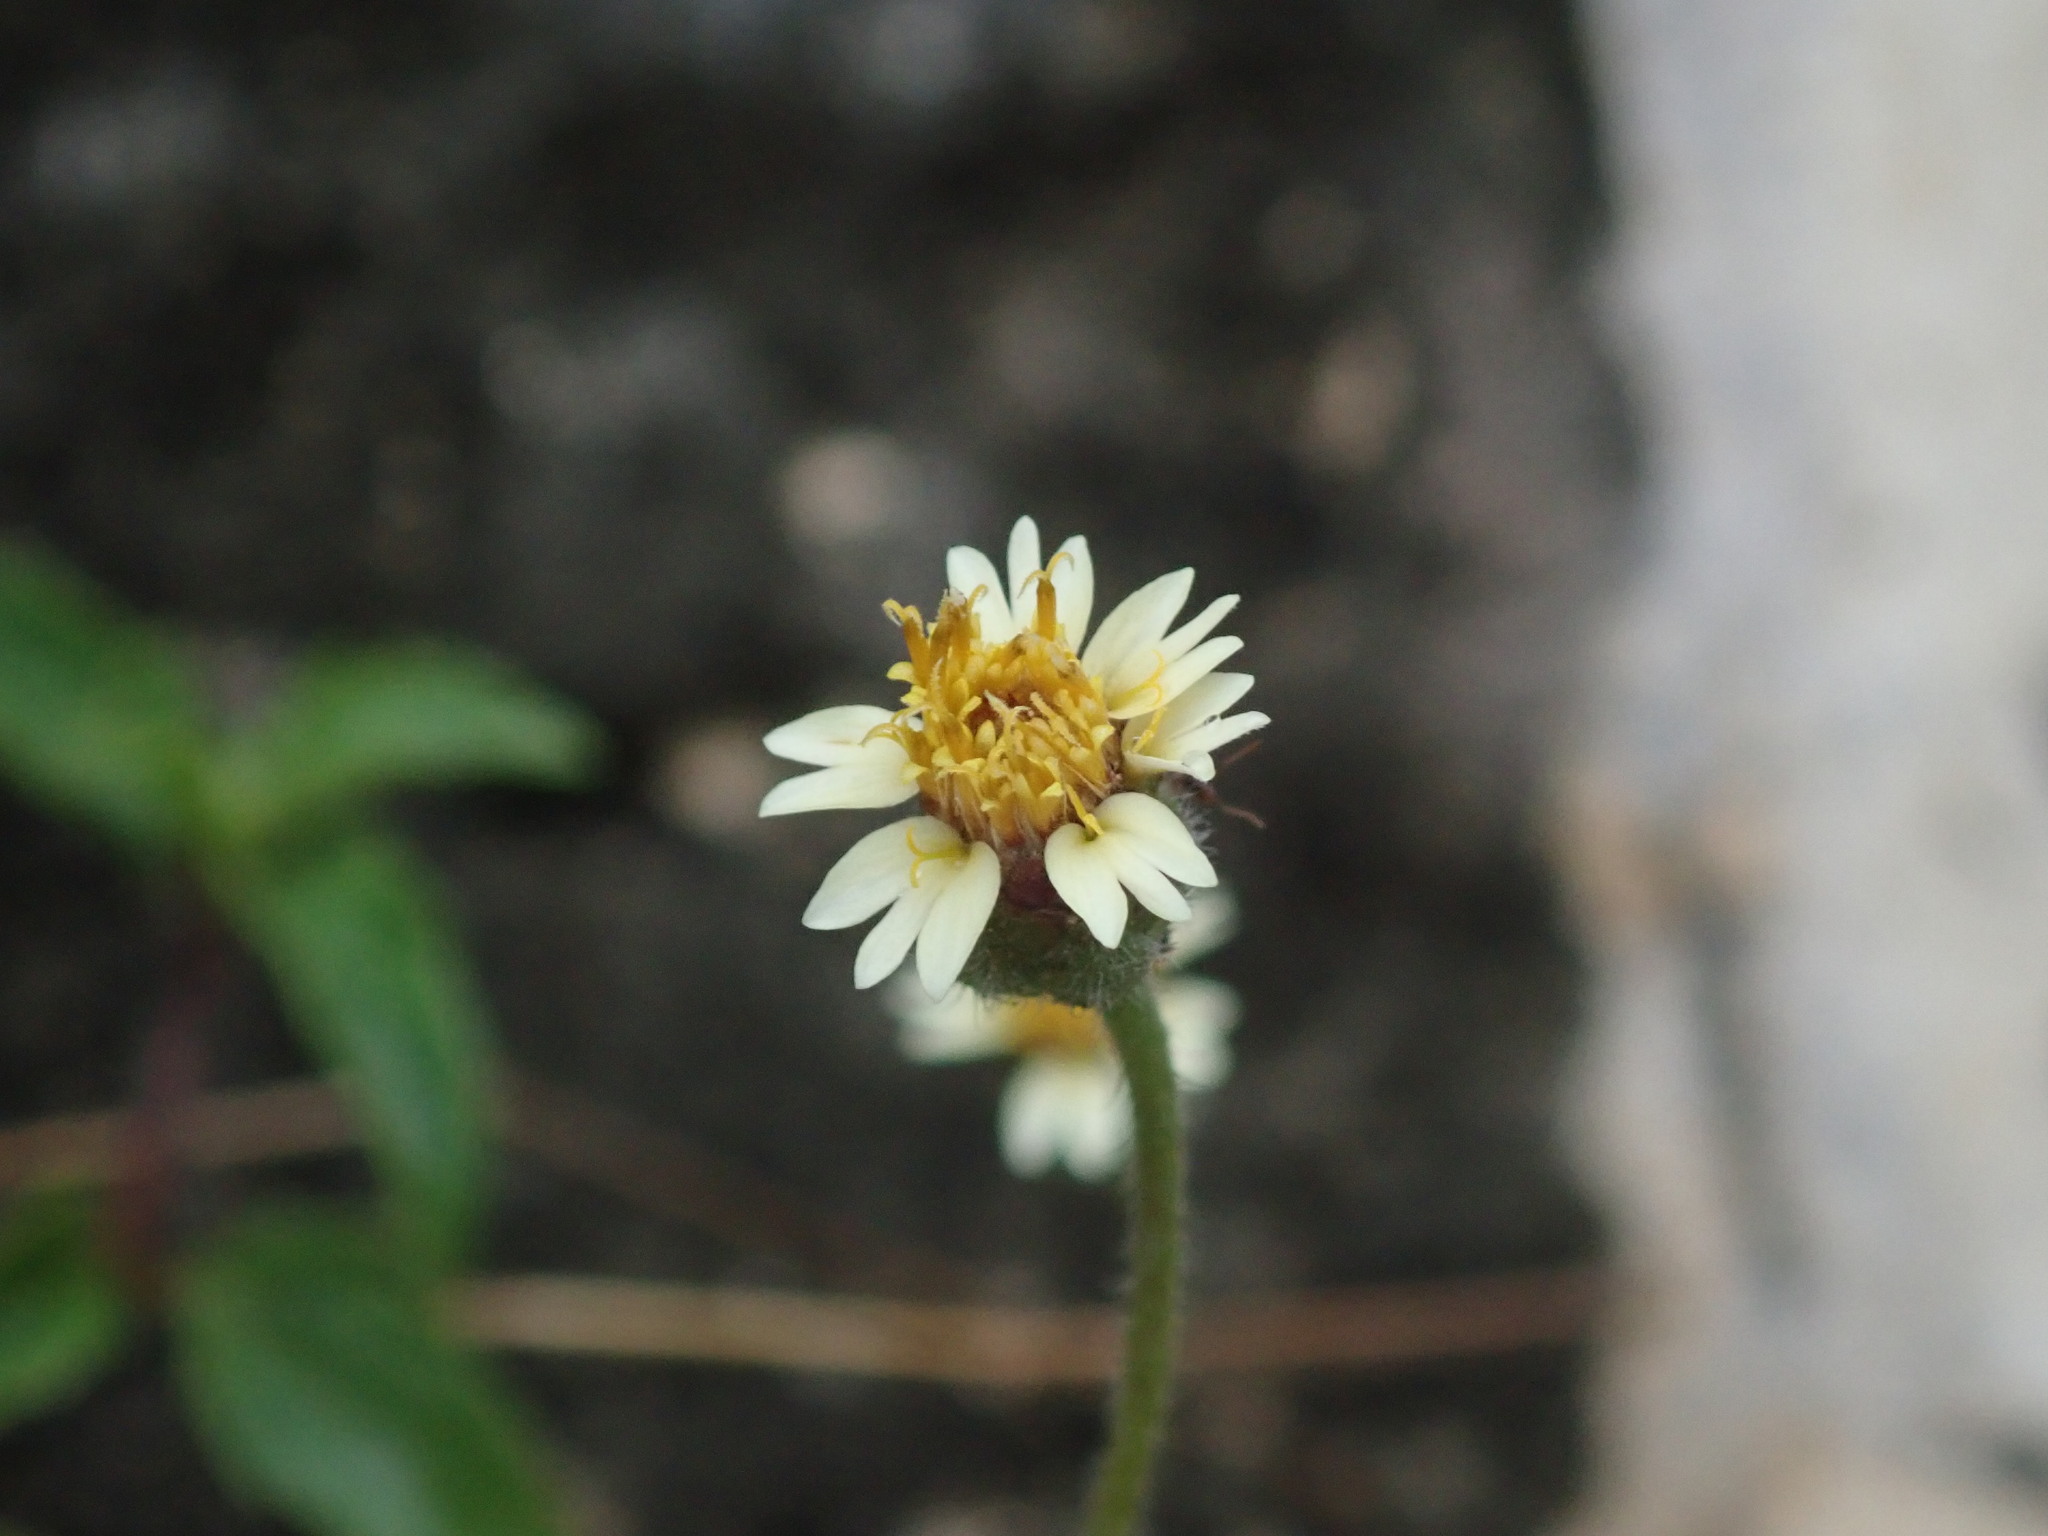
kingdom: Plantae
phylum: Tracheophyta
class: Magnoliopsida
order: Asterales
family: Asteraceae
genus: Tridax
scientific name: Tridax procumbens
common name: Coatbuttons
